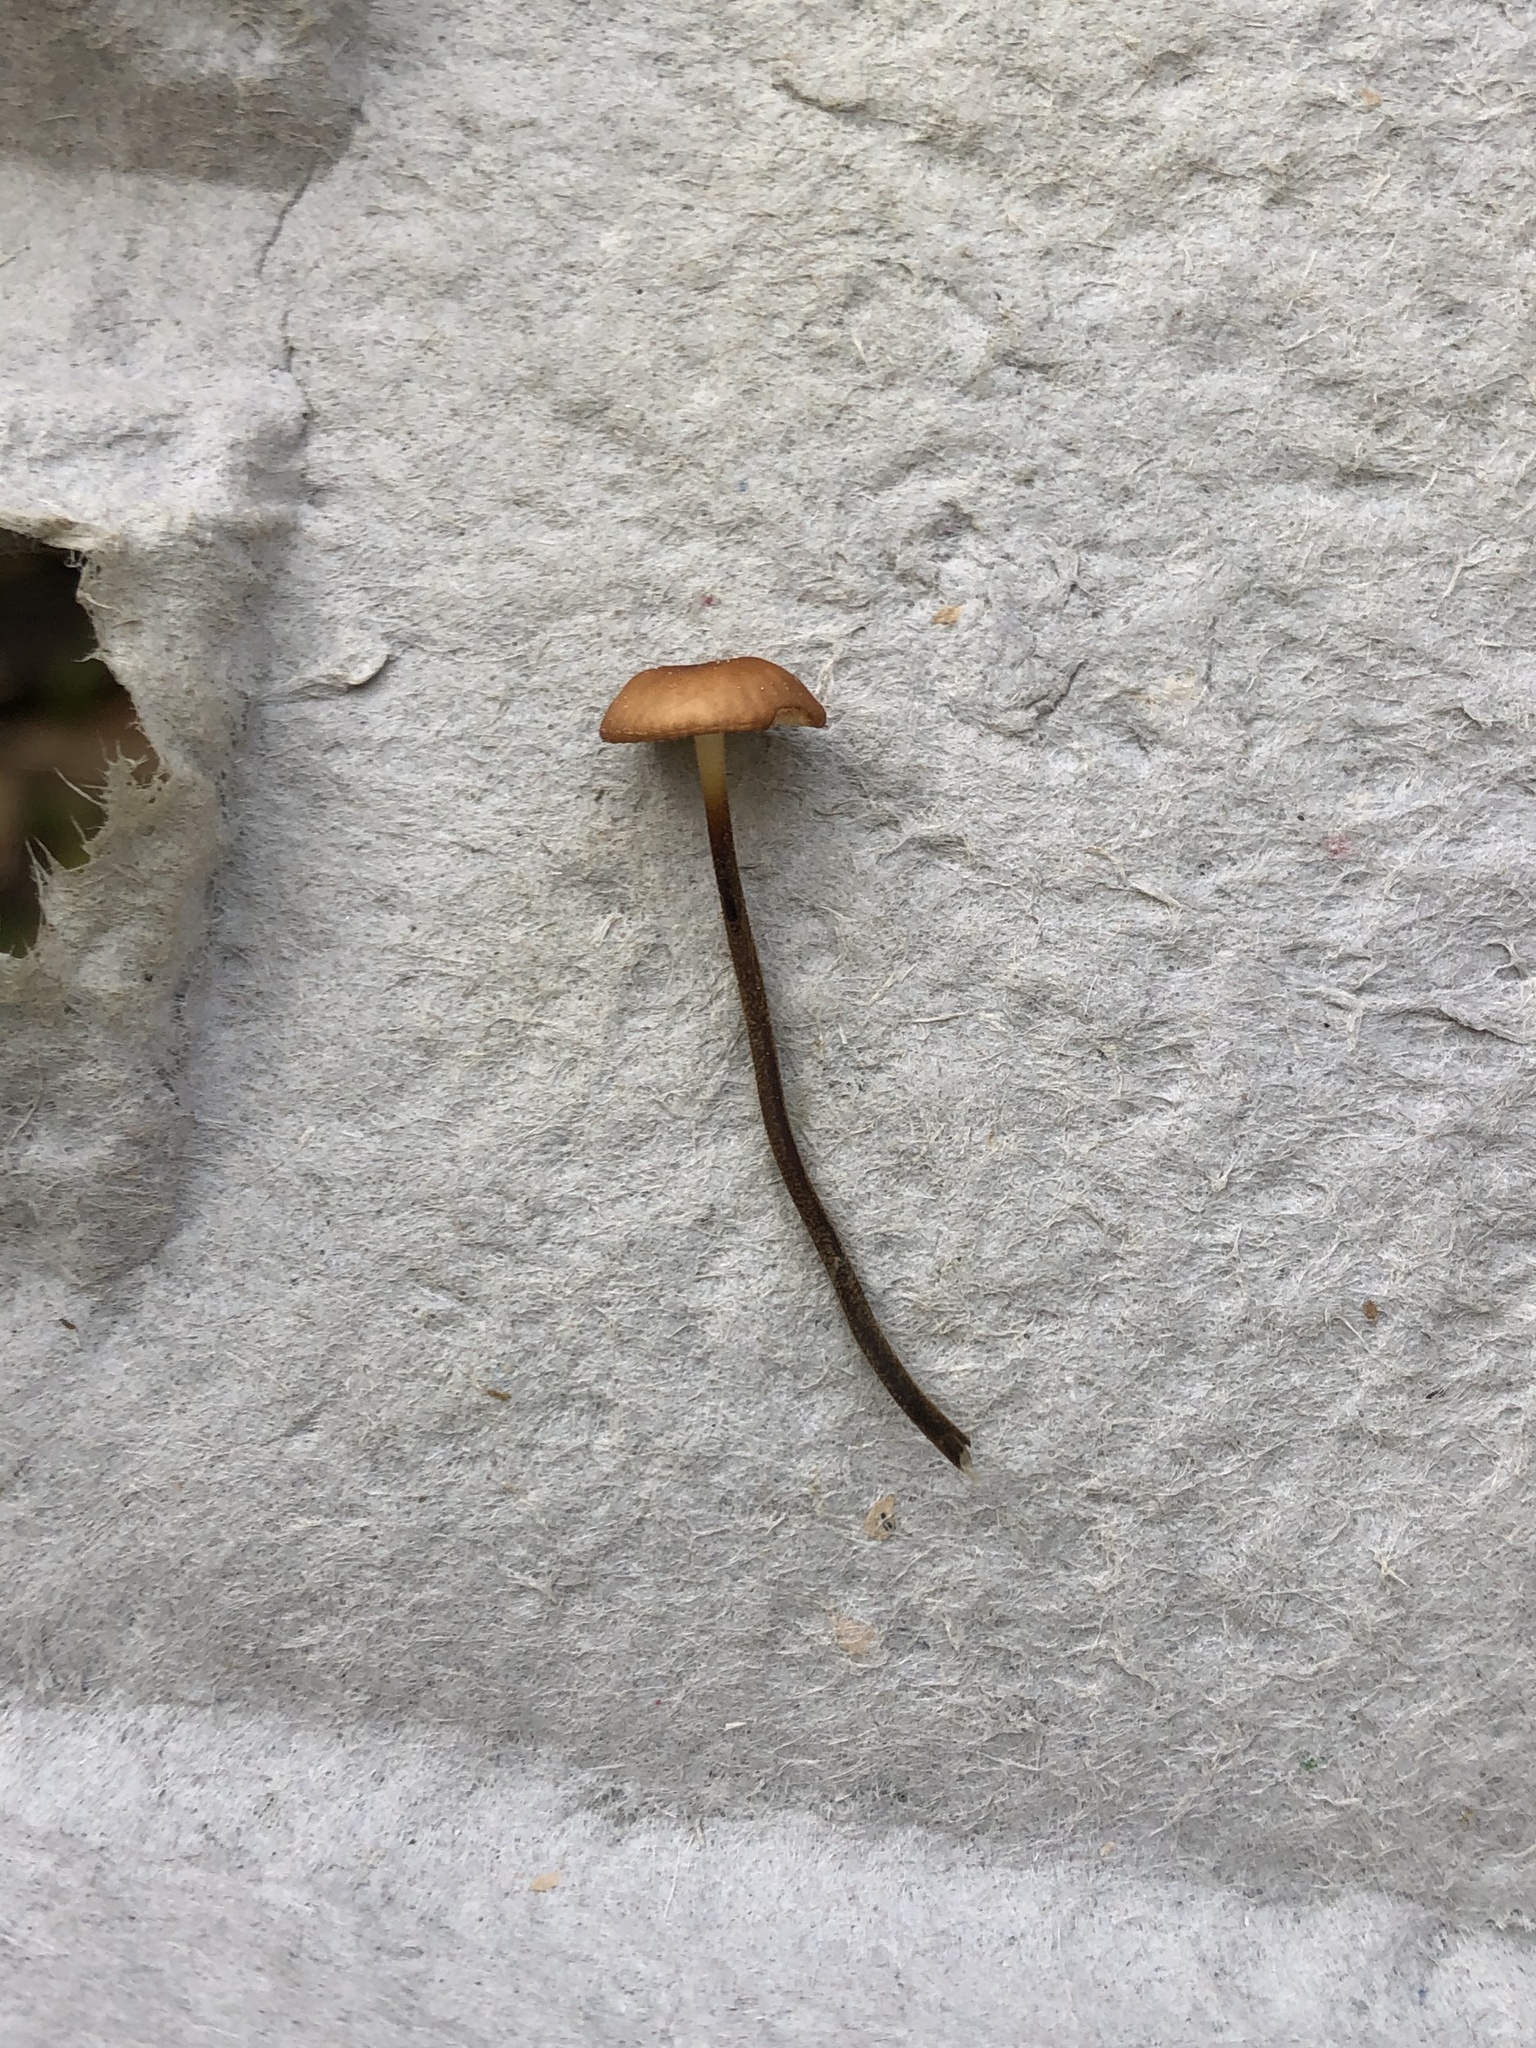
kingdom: Fungi
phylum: Basidiomycota
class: Agaricomycetes
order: Agaricales
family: Physalacriaceae
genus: Rhizomarasmius
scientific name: Rhizomarasmius pyrrhocephalus
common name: Hairy long stem marasmius
